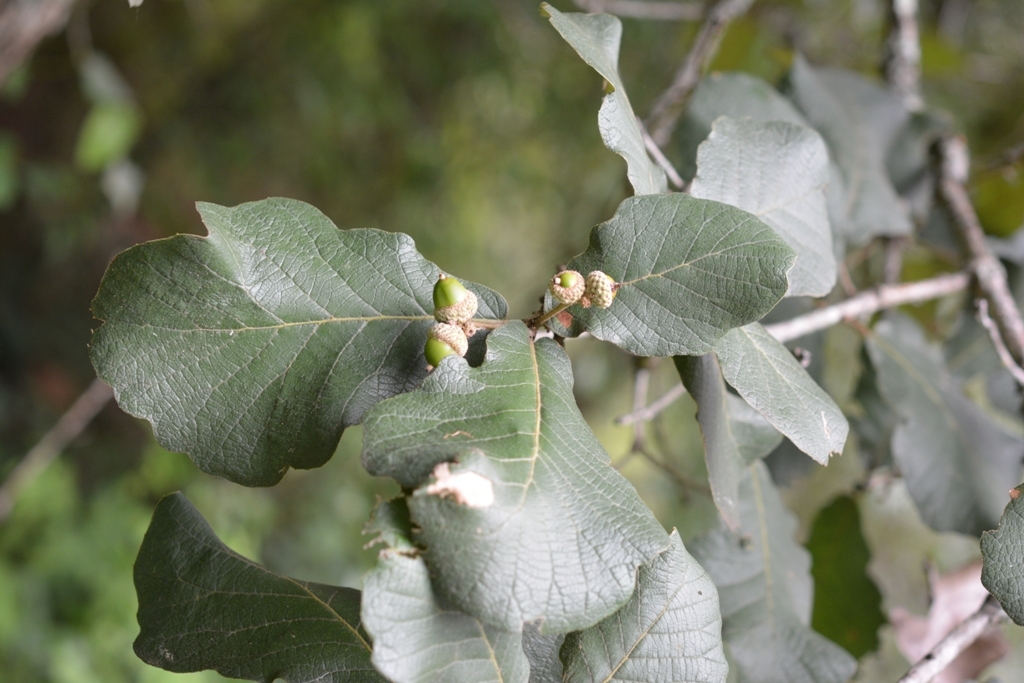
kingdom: Plantae
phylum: Tracheophyta
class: Magnoliopsida
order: Fagales
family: Fagaceae
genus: Quercus
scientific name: Quercus rugosa
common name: Netleaf oak
